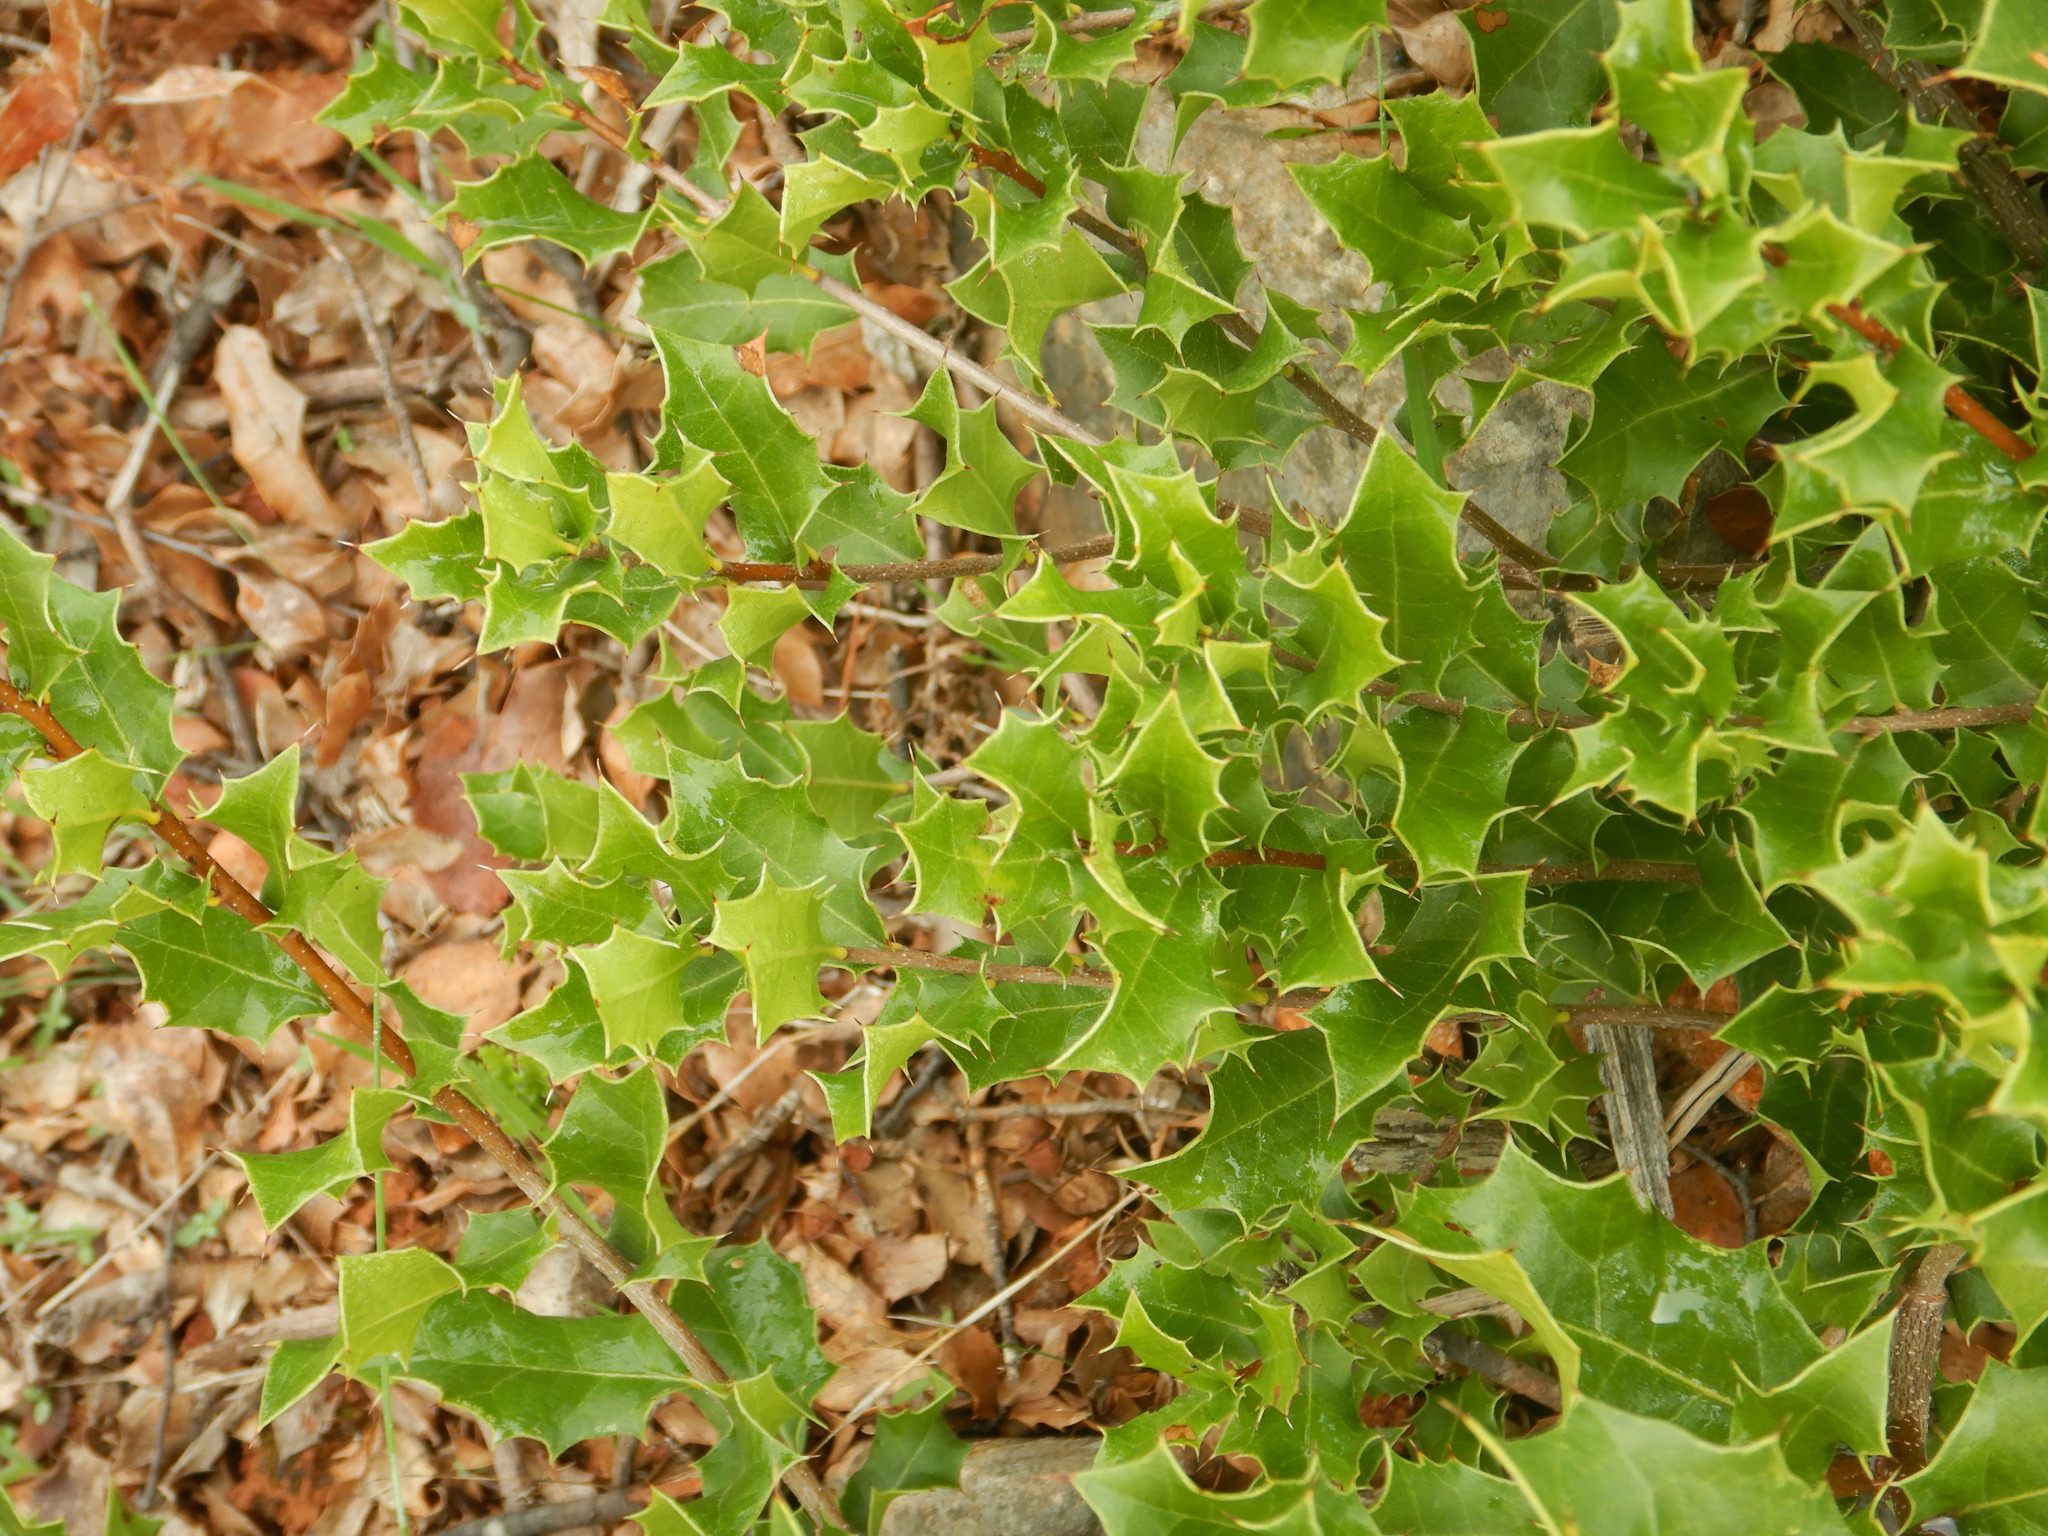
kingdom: Plantae
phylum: Tracheophyta
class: Magnoliopsida
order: Fagales
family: Fagaceae
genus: Quercus
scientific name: Quercus coccifera
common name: Kermes oak
